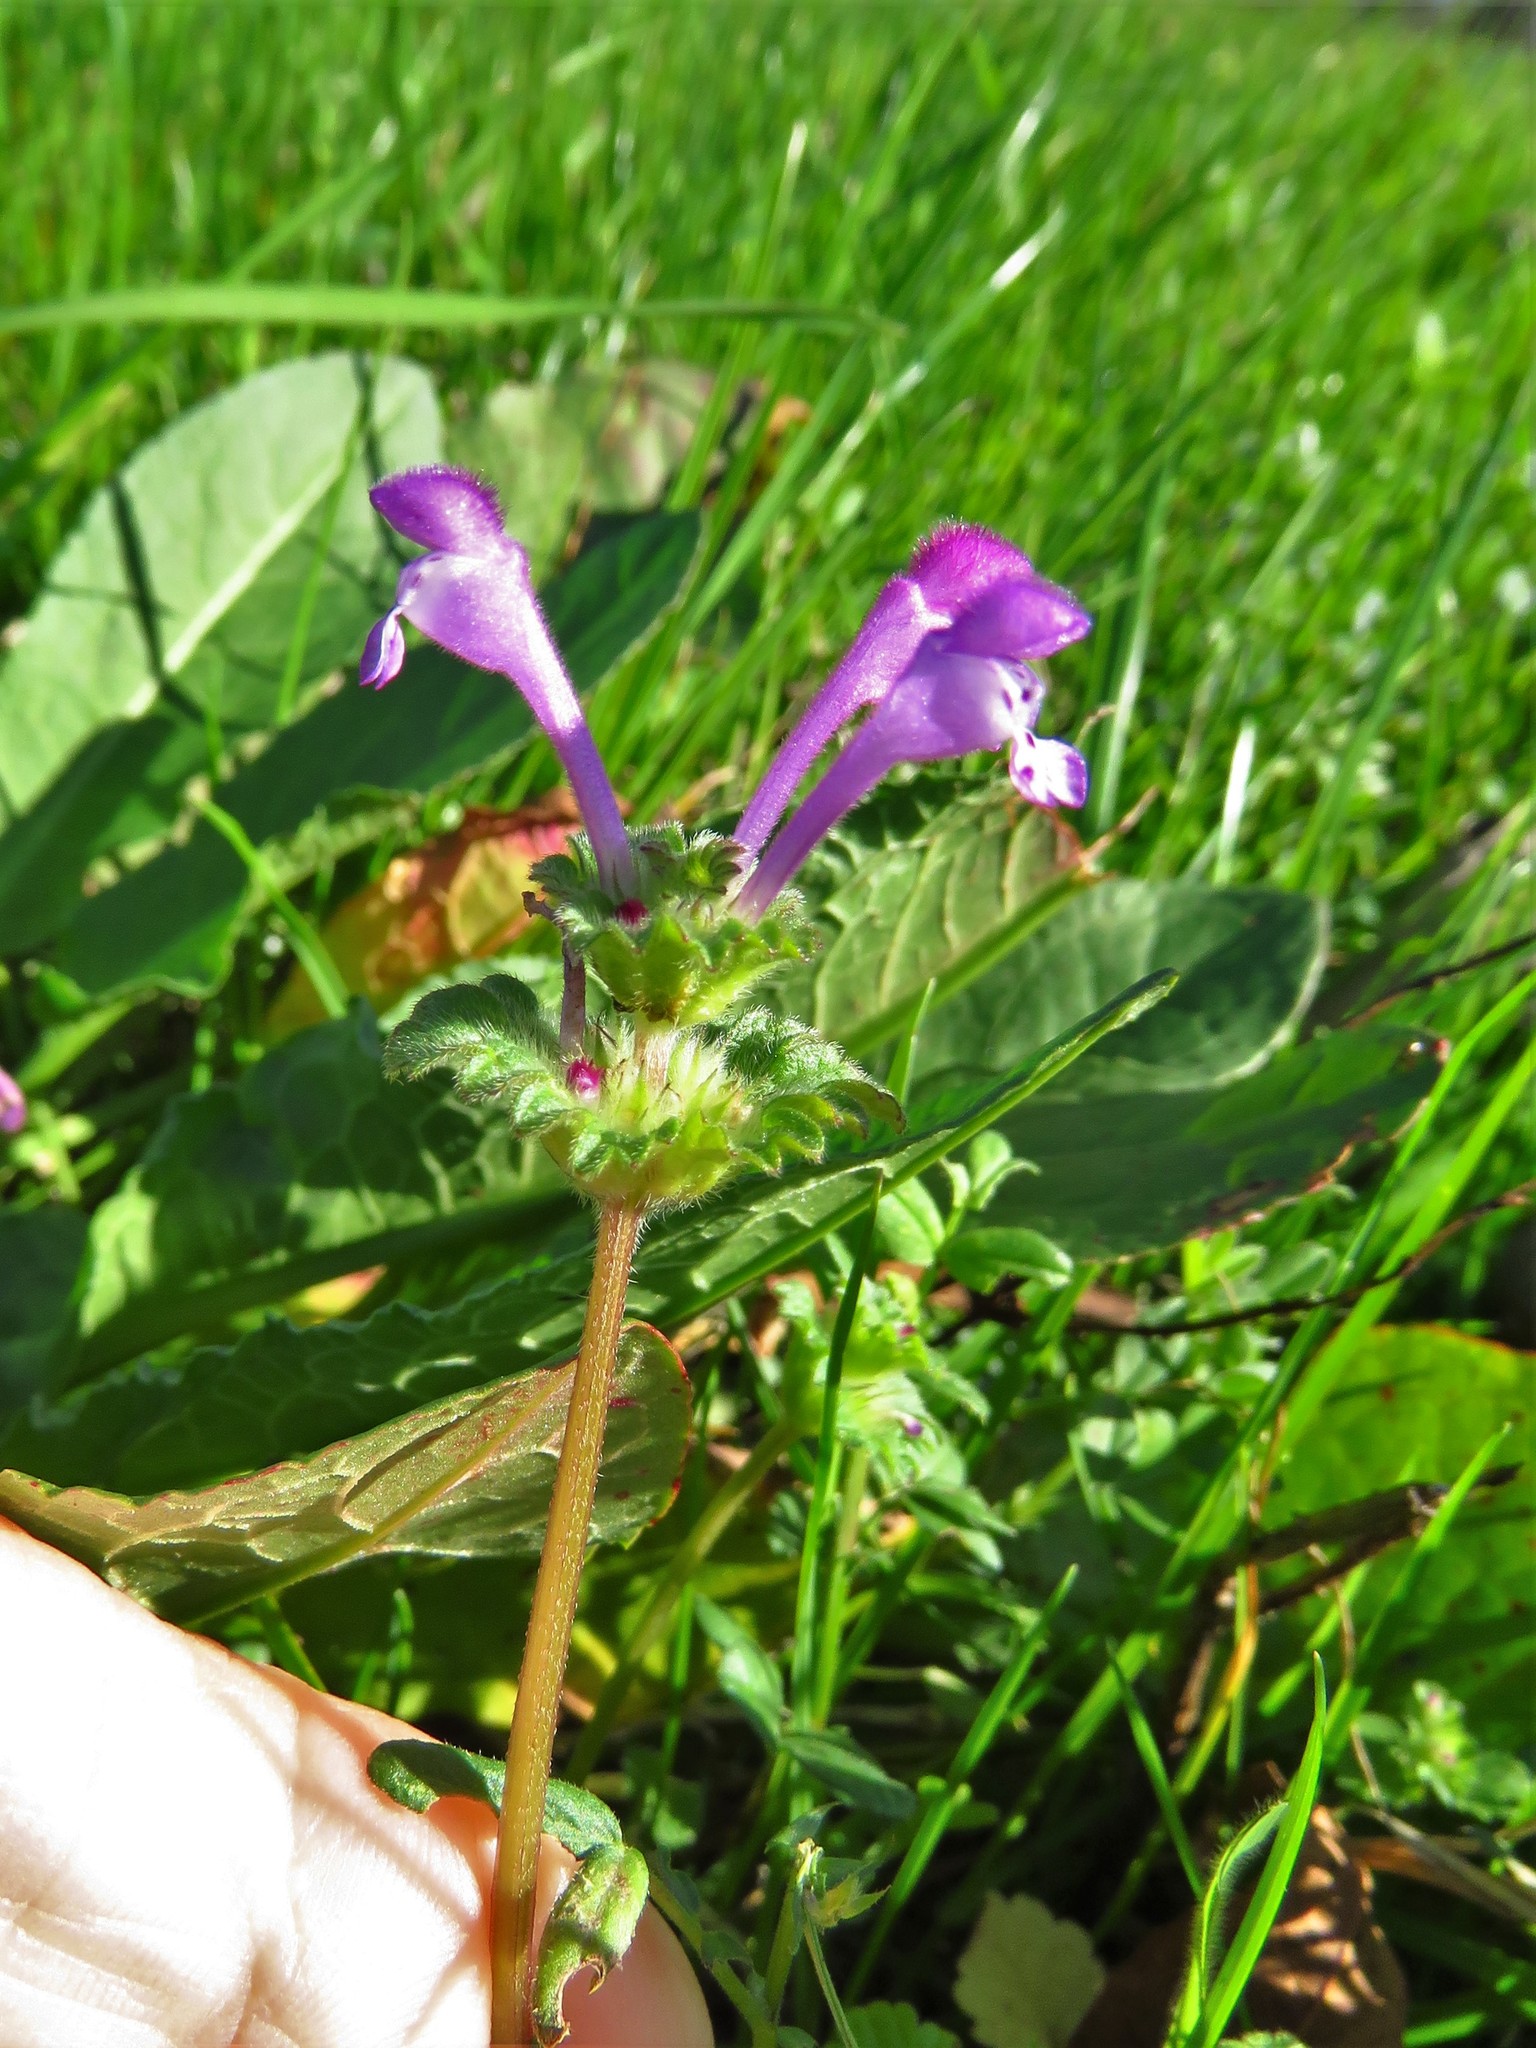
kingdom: Plantae
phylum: Tracheophyta
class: Magnoliopsida
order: Lamiales
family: Lamiaceae
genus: Lamium
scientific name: Lamium amplexicaule
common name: Henbit dead-nettle
